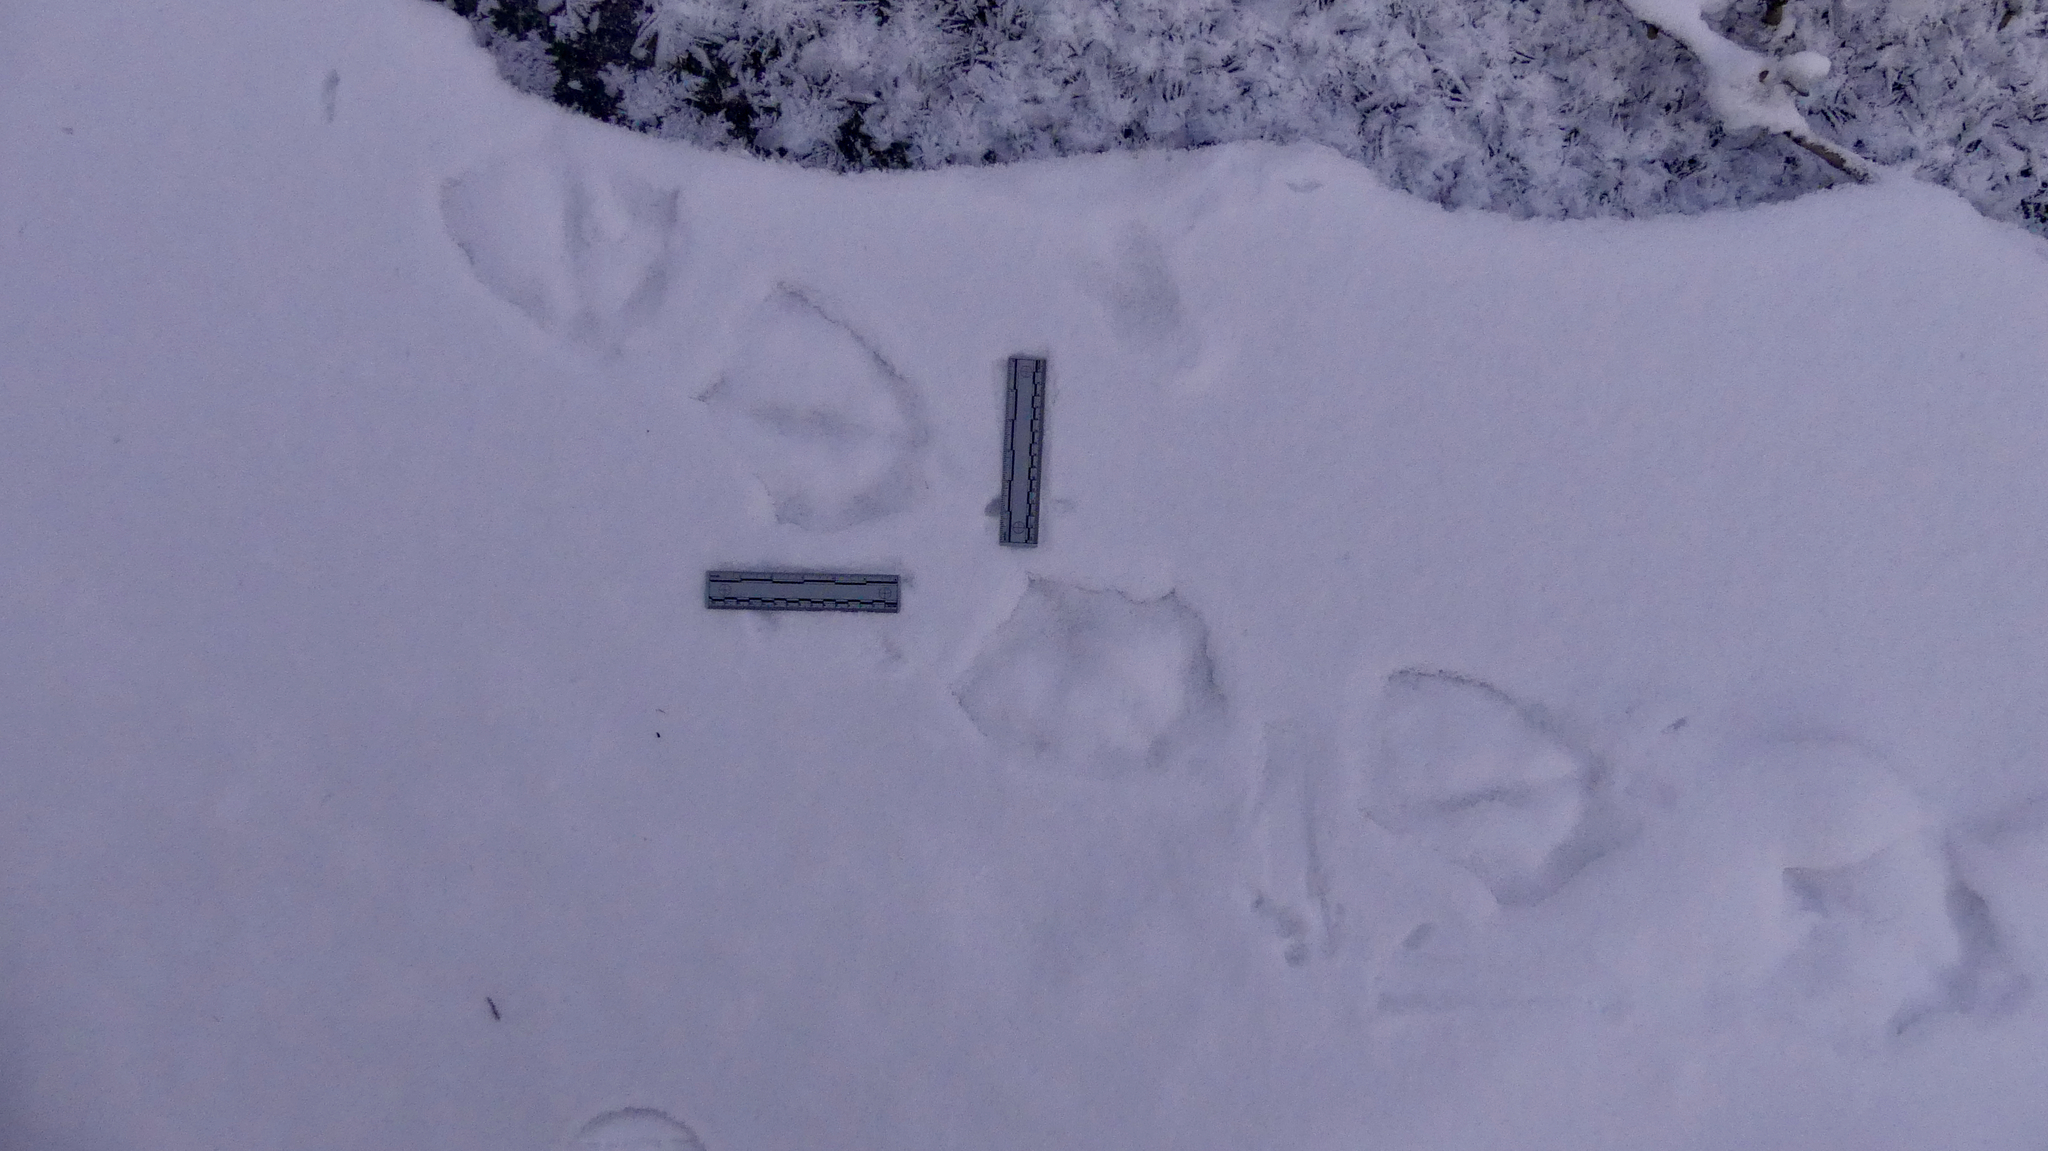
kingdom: Animalia
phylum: Chordata
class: Aves
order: Anseriformes
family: Anatidae
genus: Cygnus
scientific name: Cygnus buccinator
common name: Trumpeter swan
